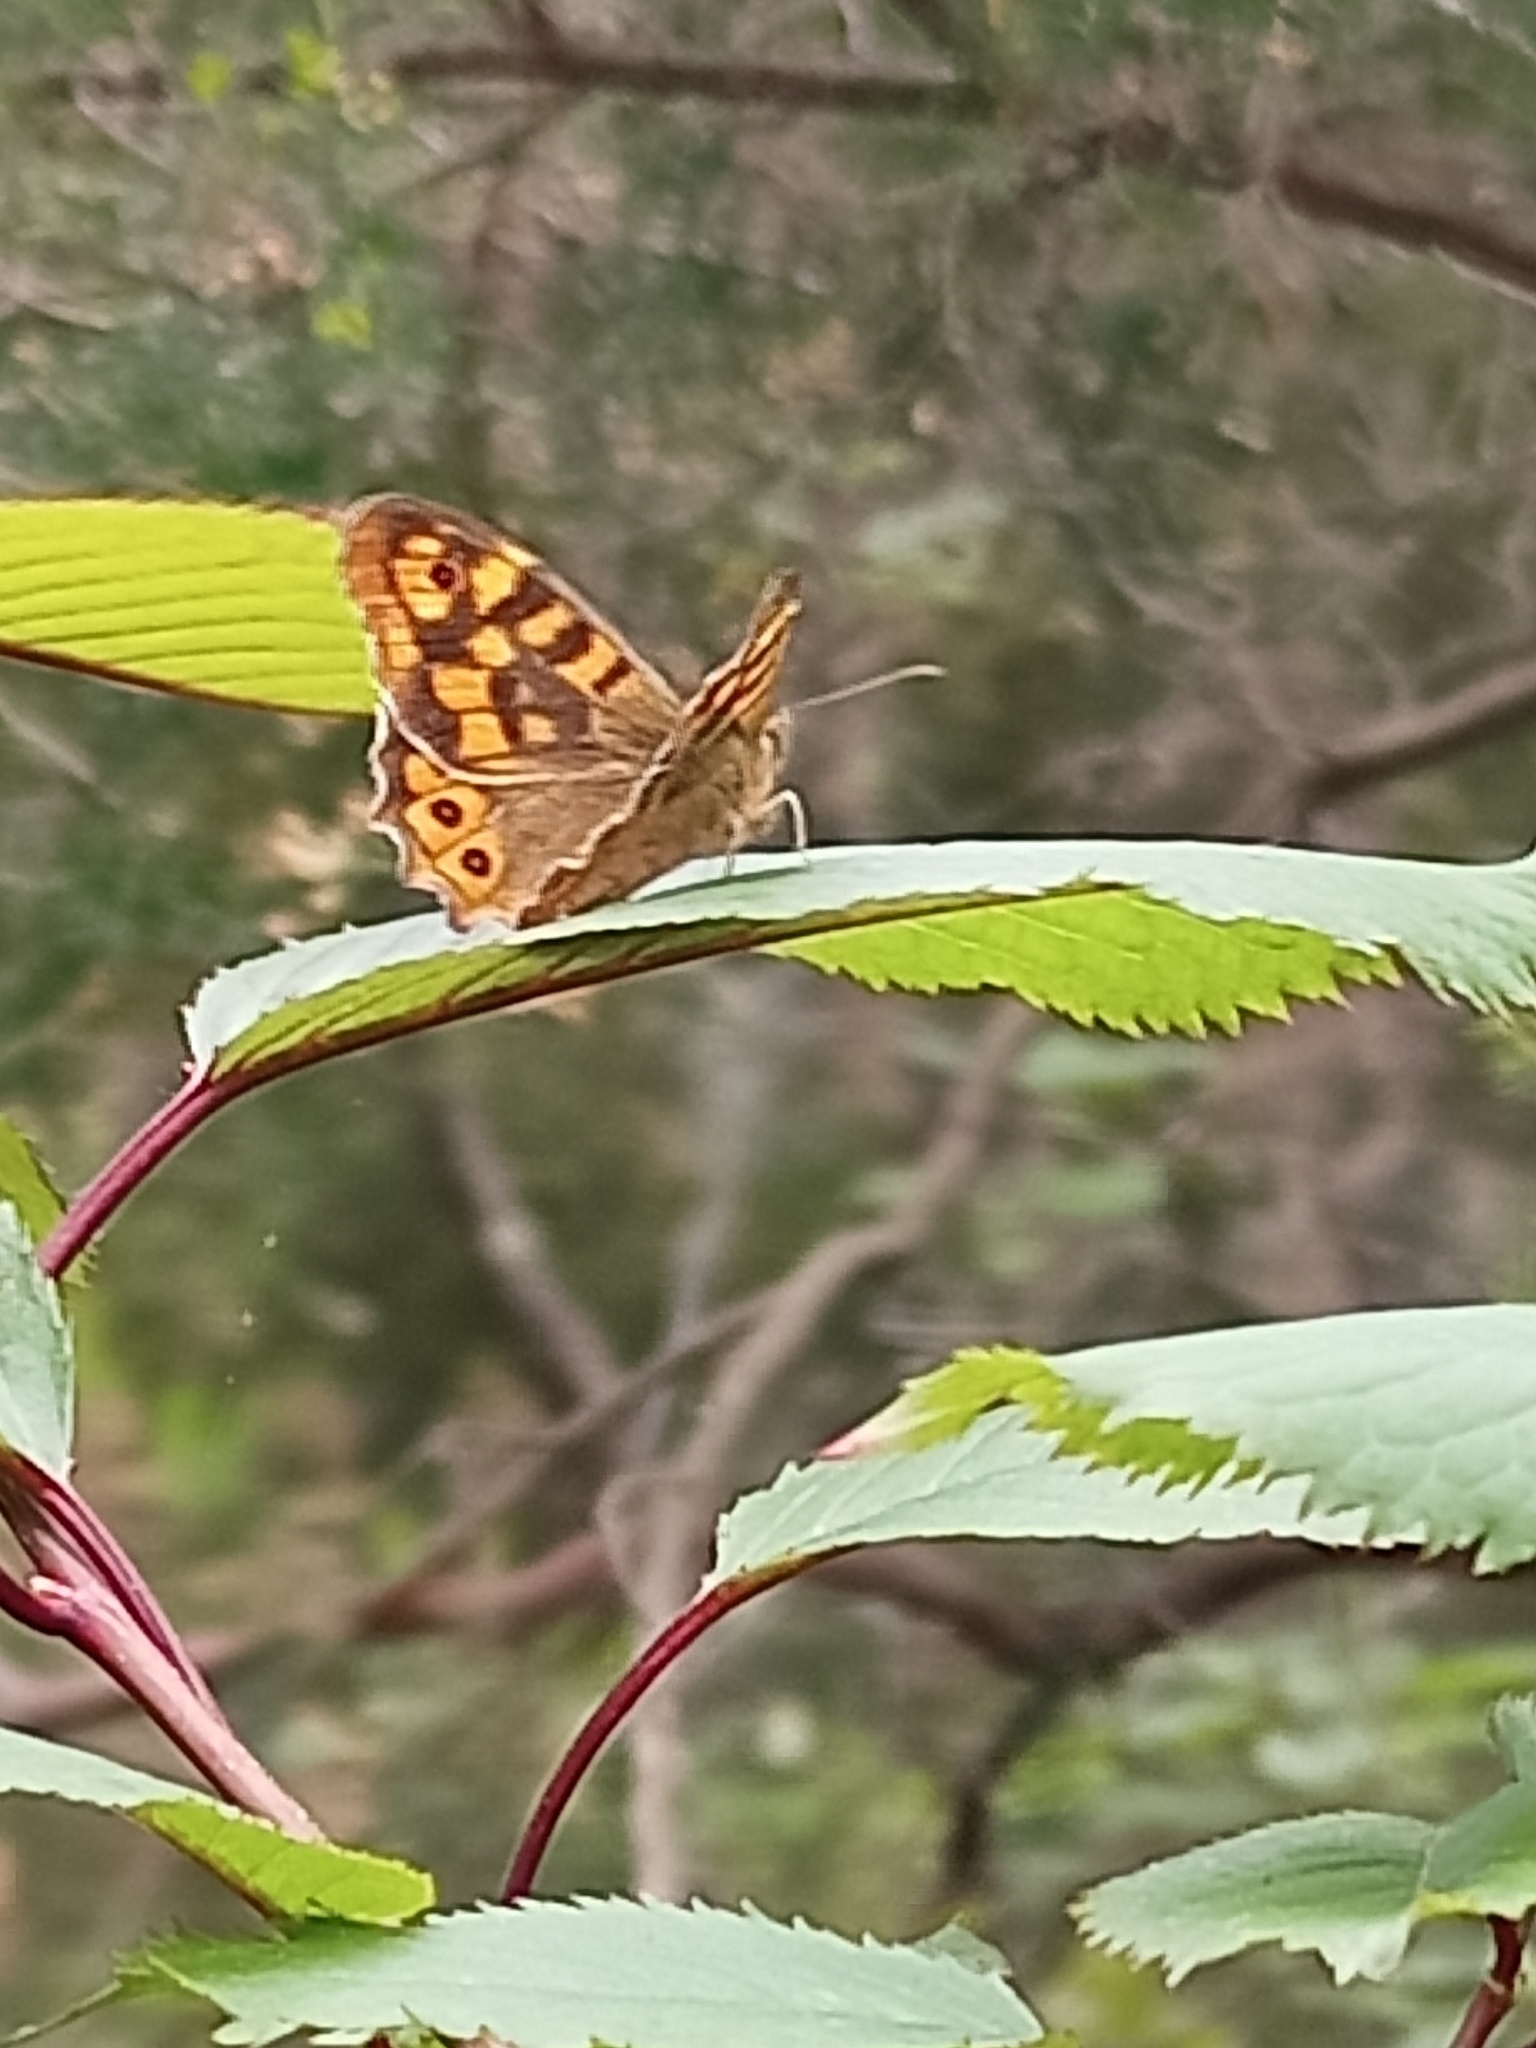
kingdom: Animalia
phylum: Arthropoda
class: Insecta
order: Lepidoptera
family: Nymphalidae
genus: Pararge
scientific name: Pararge aegeria
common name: Speckled wood
